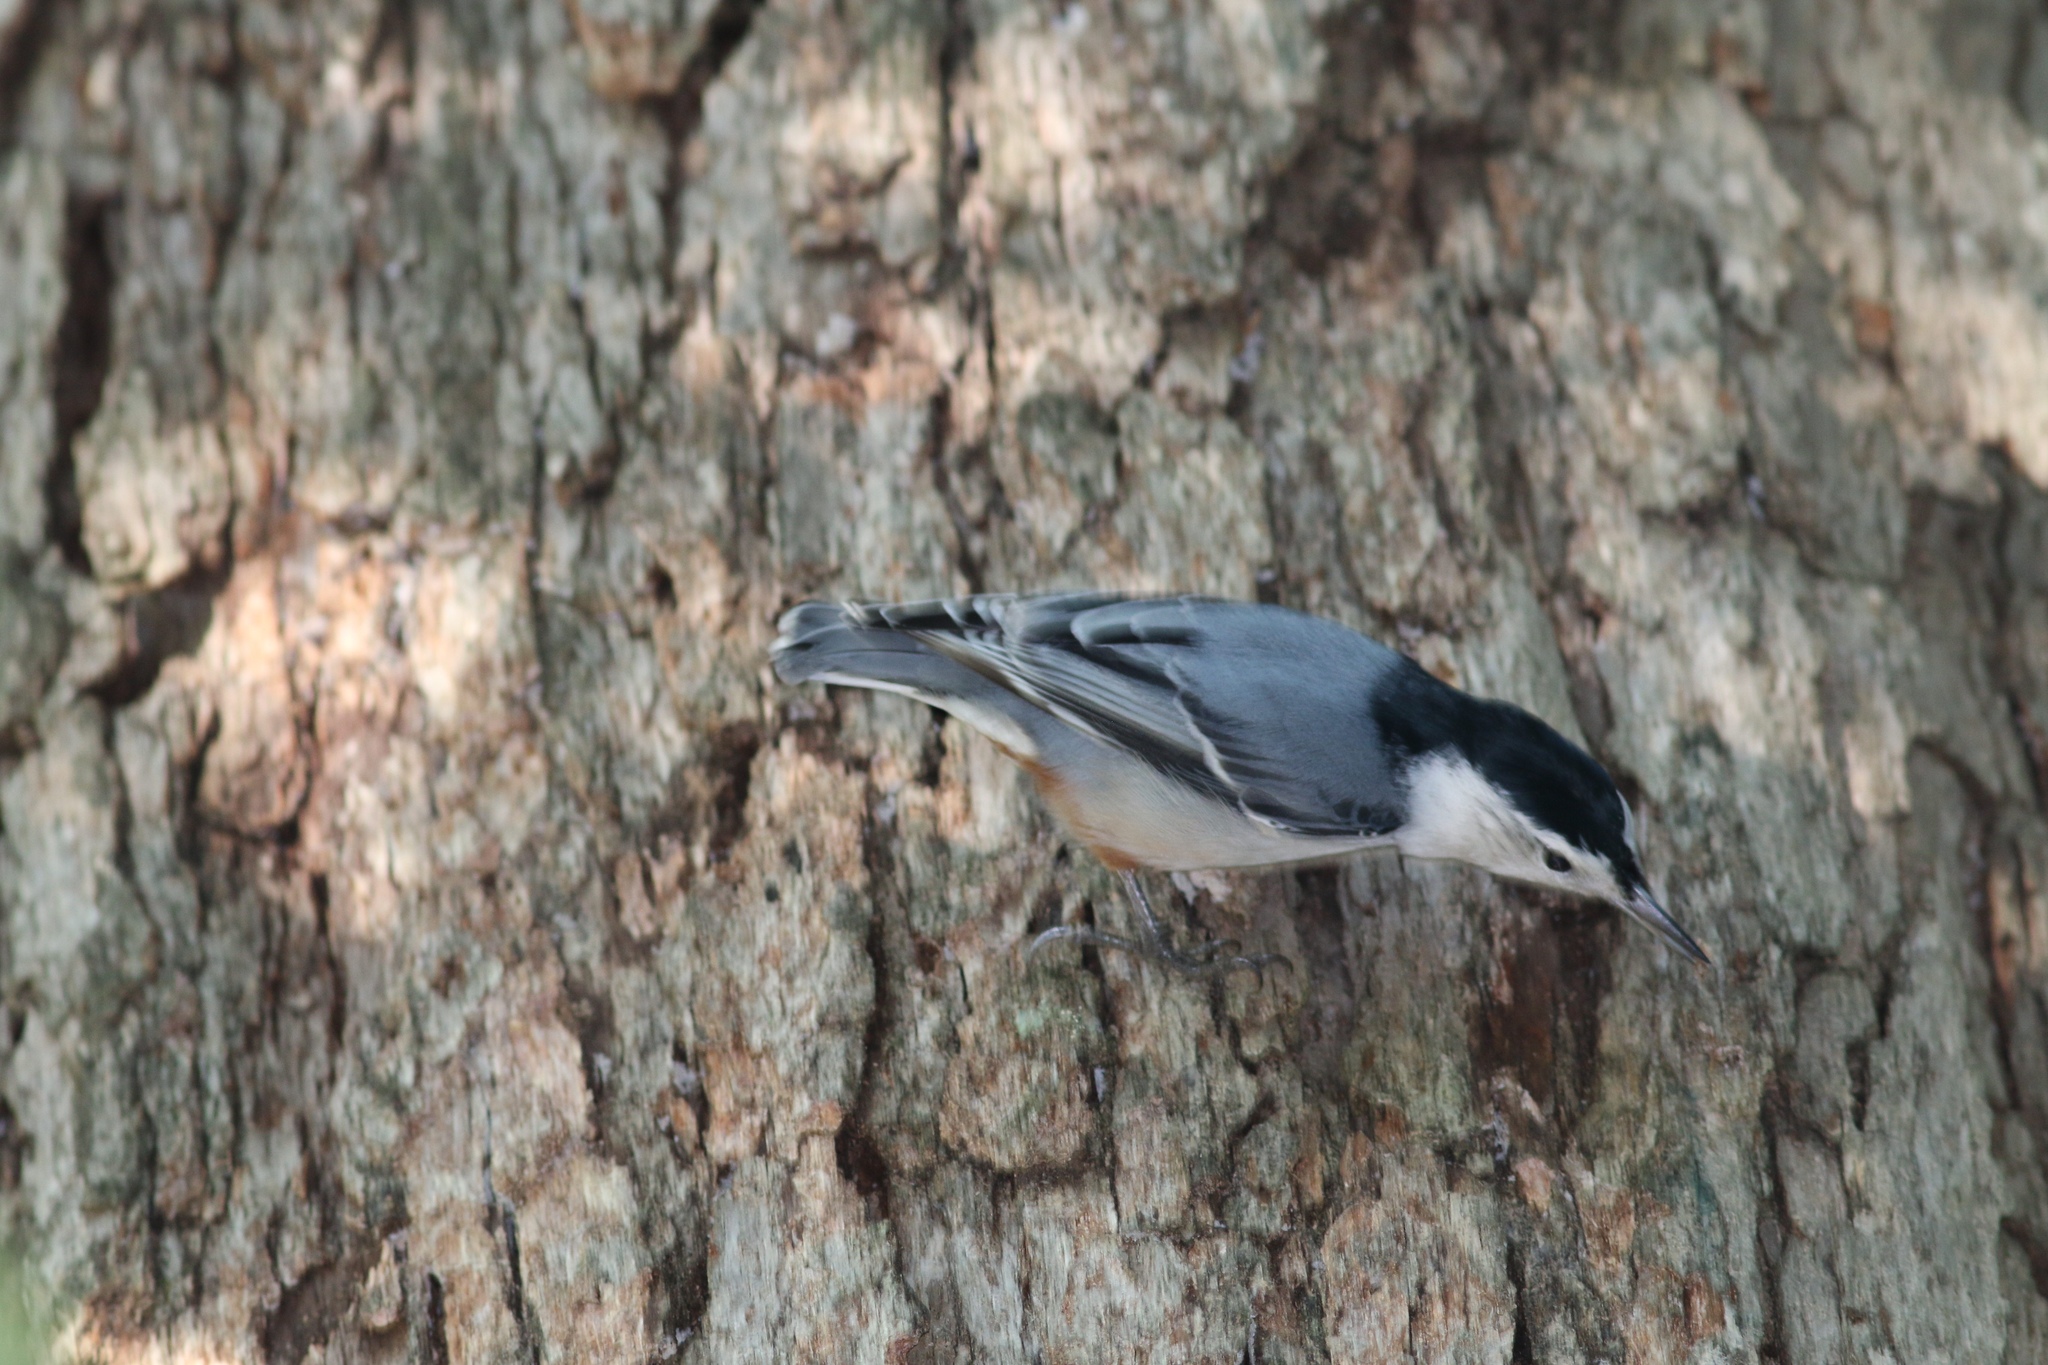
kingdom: Animalia
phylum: Chordata
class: Aves
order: Passeriformes
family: Sittidae
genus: Sitta
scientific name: Sitta carolinensis
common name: White-breasted nuthatch
